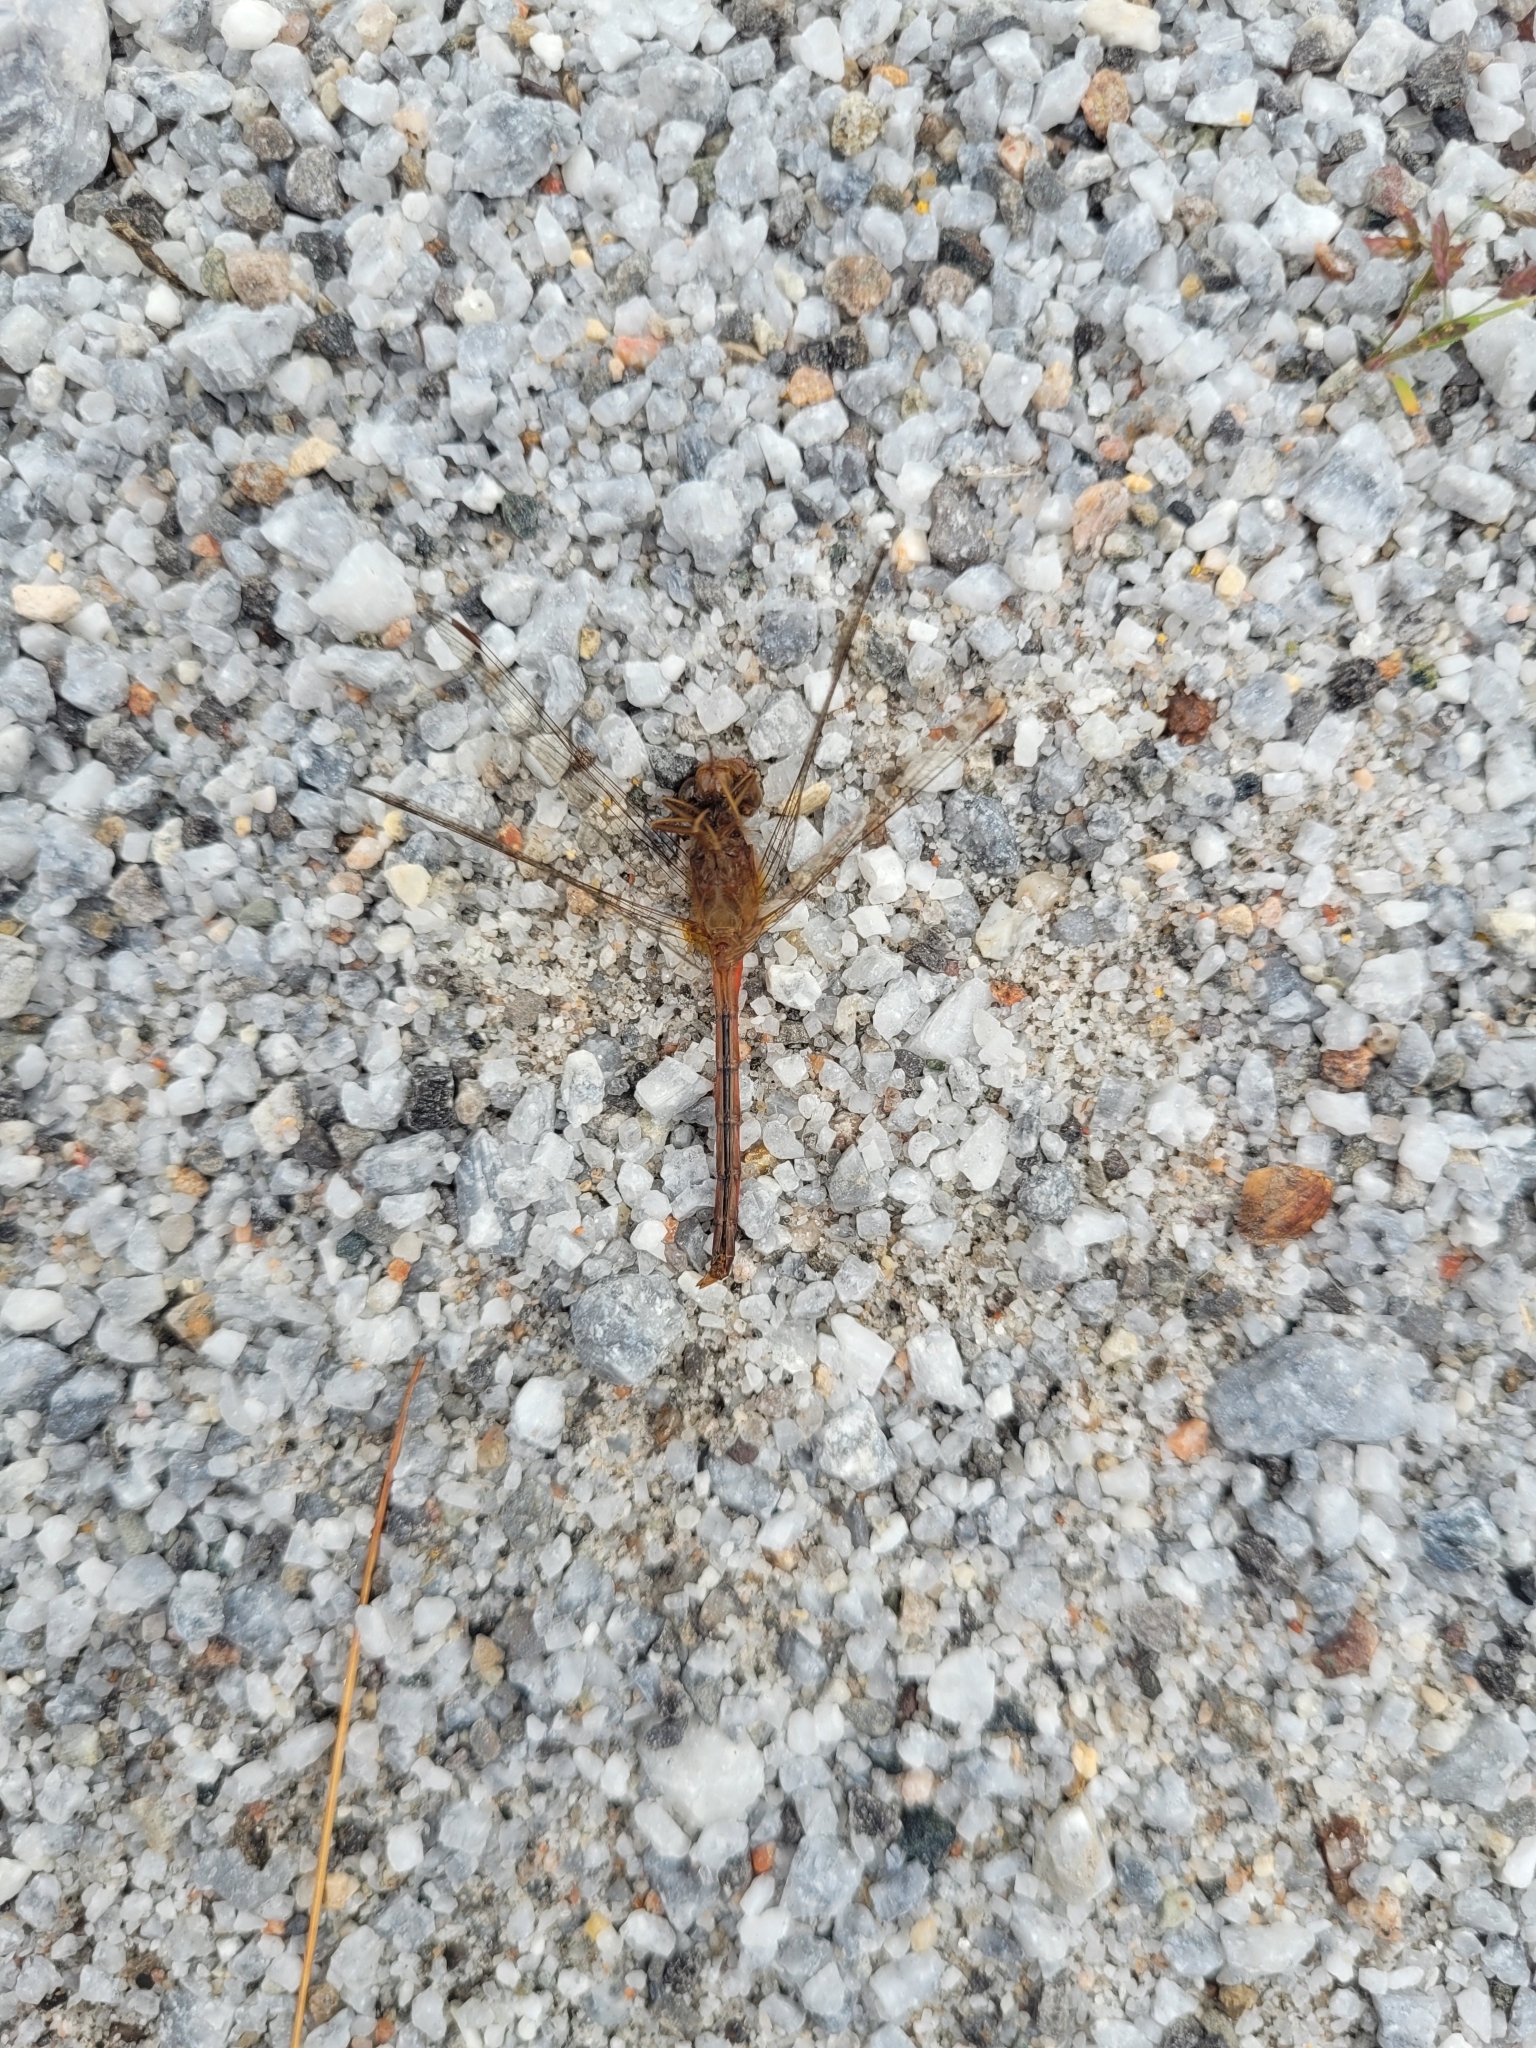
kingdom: Animalia
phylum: Arthropoda
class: Insecta
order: Odonata
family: Libellulidae
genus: Sympetrum
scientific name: Sympetrum vicinum
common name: Autumn meadowhawk
